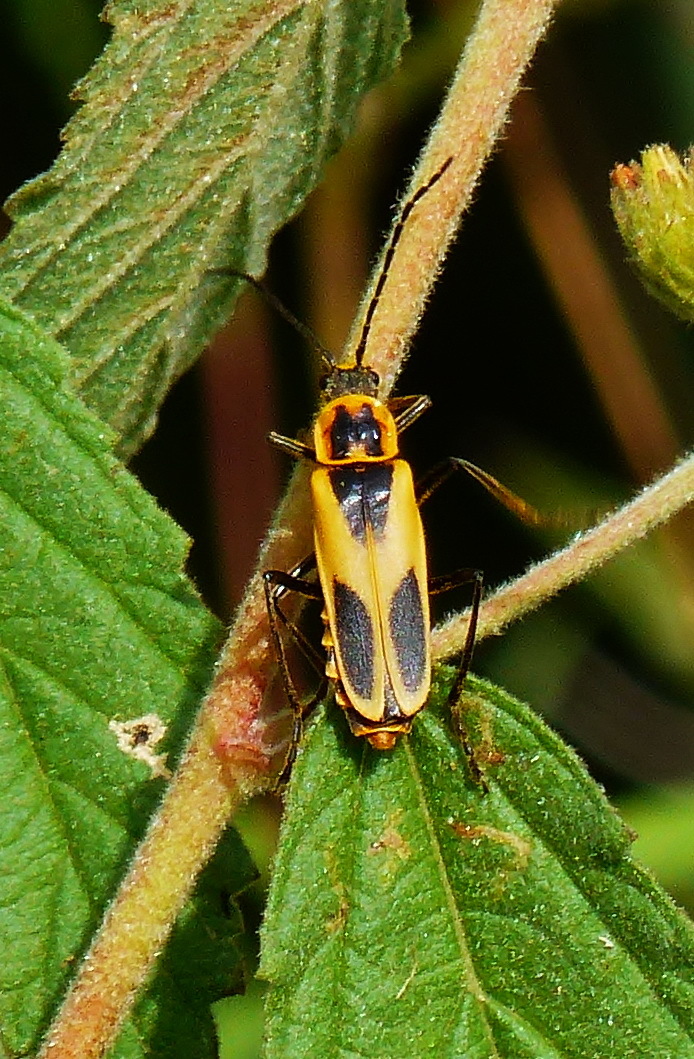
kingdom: Animalia
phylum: Arthropoda
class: Insecta
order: Coleoptera
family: Cantharidae
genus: Chauliognathus
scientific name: Chauliognathus scutellaris
